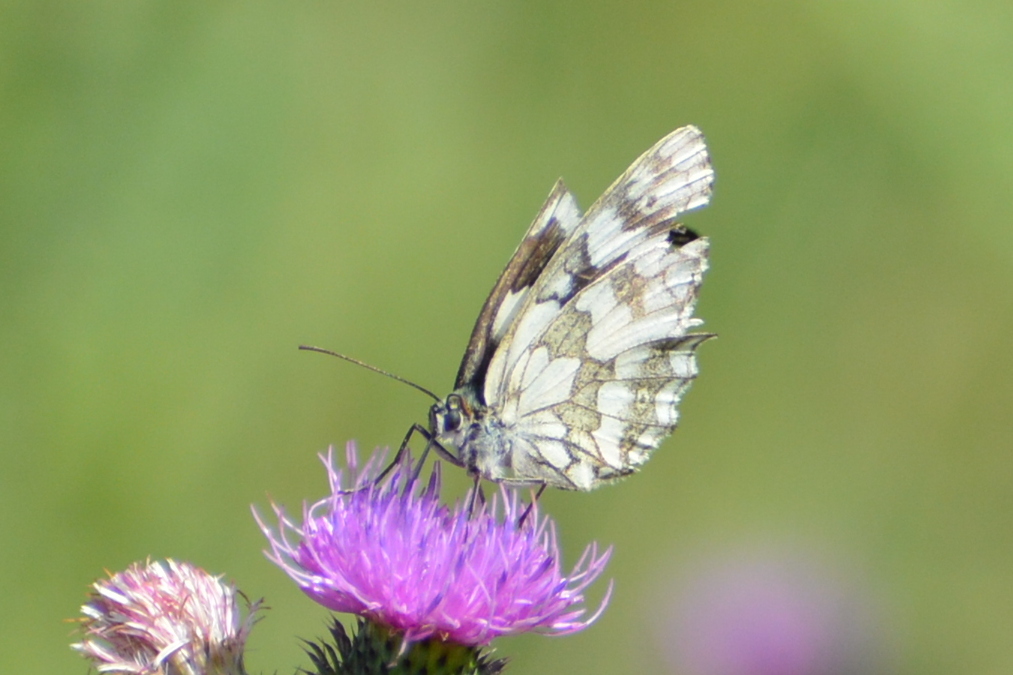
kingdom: Animalia
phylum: Arthropoda
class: Insecta
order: Lepidoptera
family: Nymphalidae
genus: Melanargia
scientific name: Melanargia galathea
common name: Marbled white
